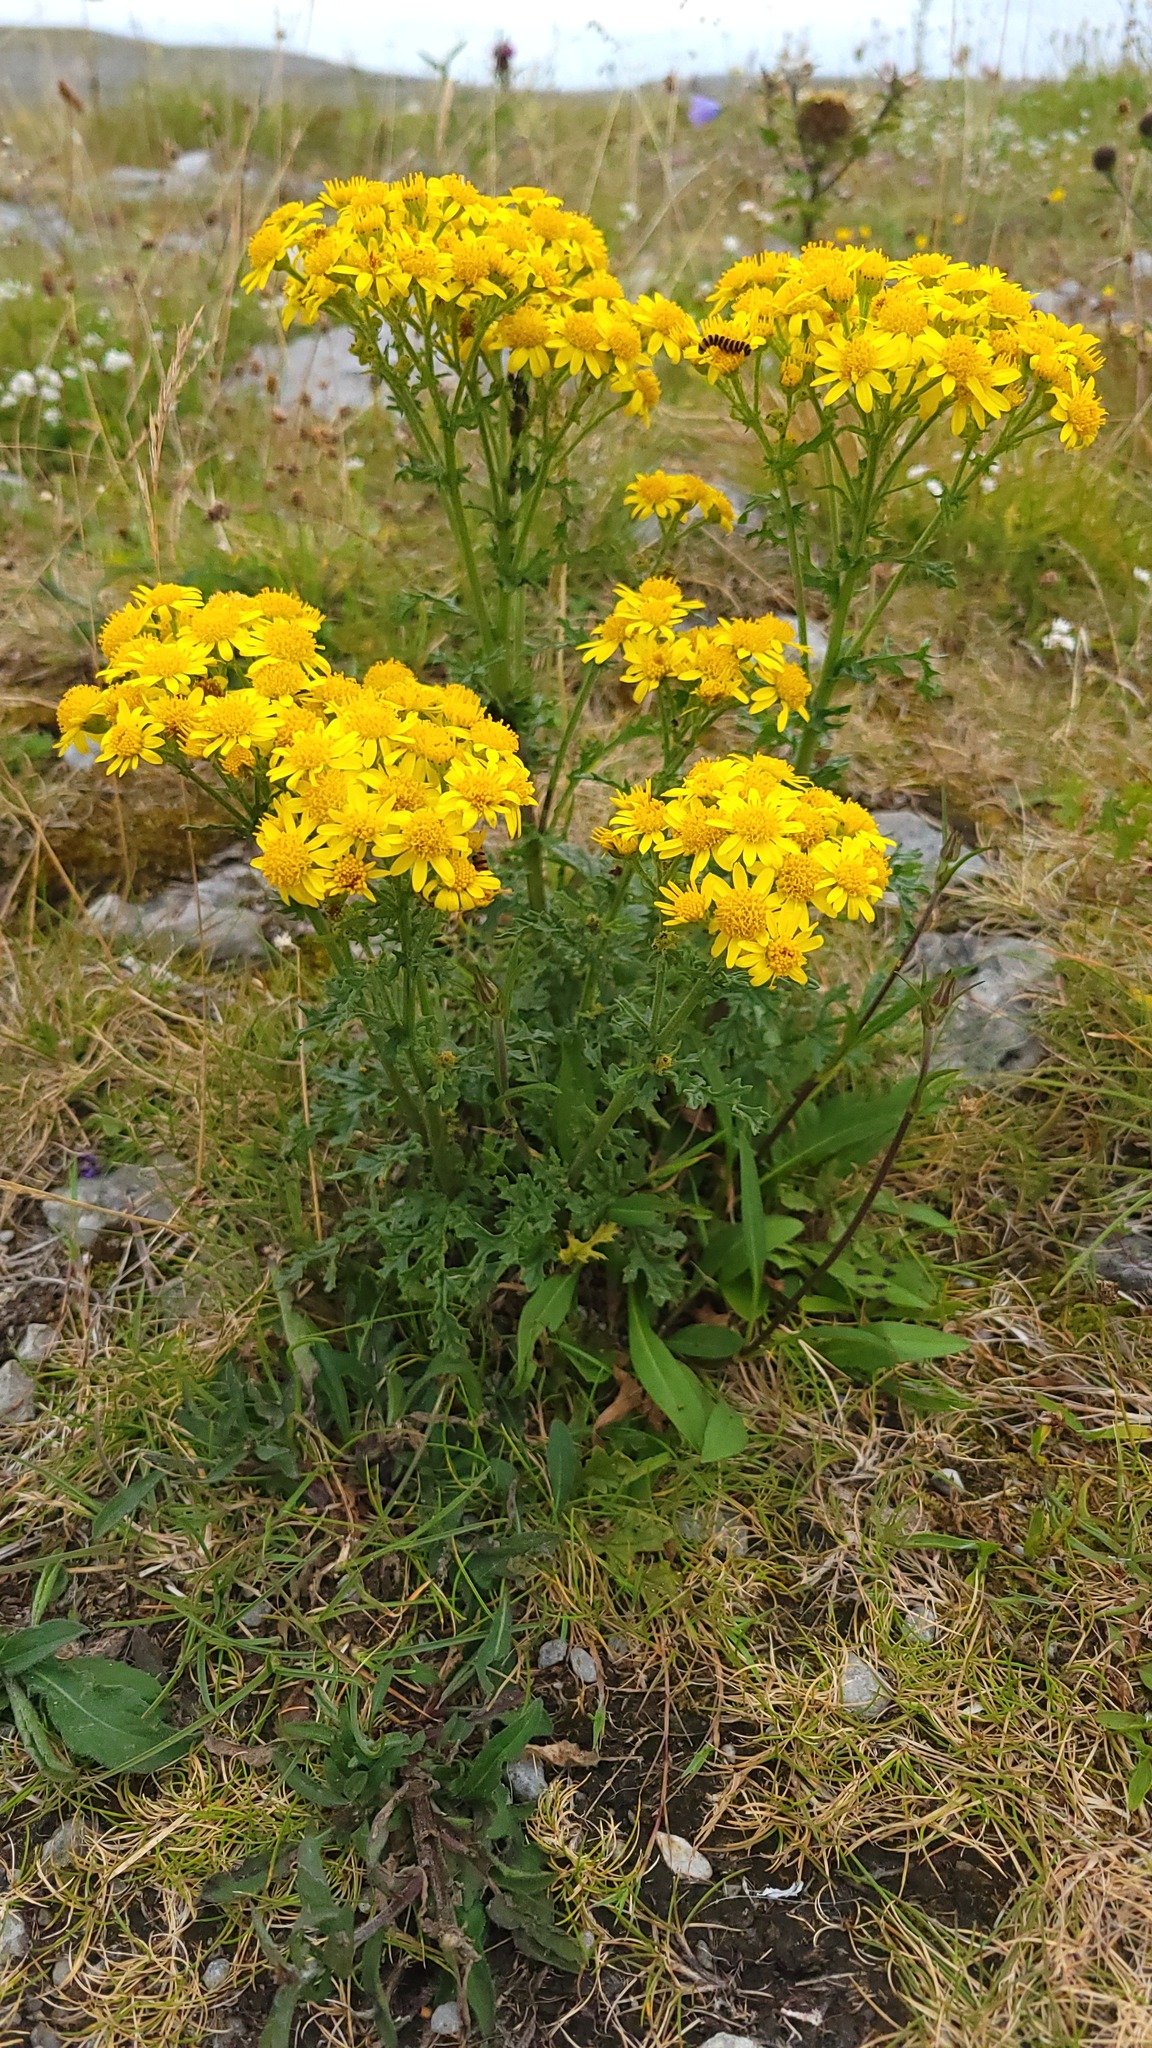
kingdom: Plantae
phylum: Tracheophyta
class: Magnoliopsida
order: Asterales
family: Asteraceae
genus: Jacobaea
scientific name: Jacobaea vulgaris
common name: Stinking willie
